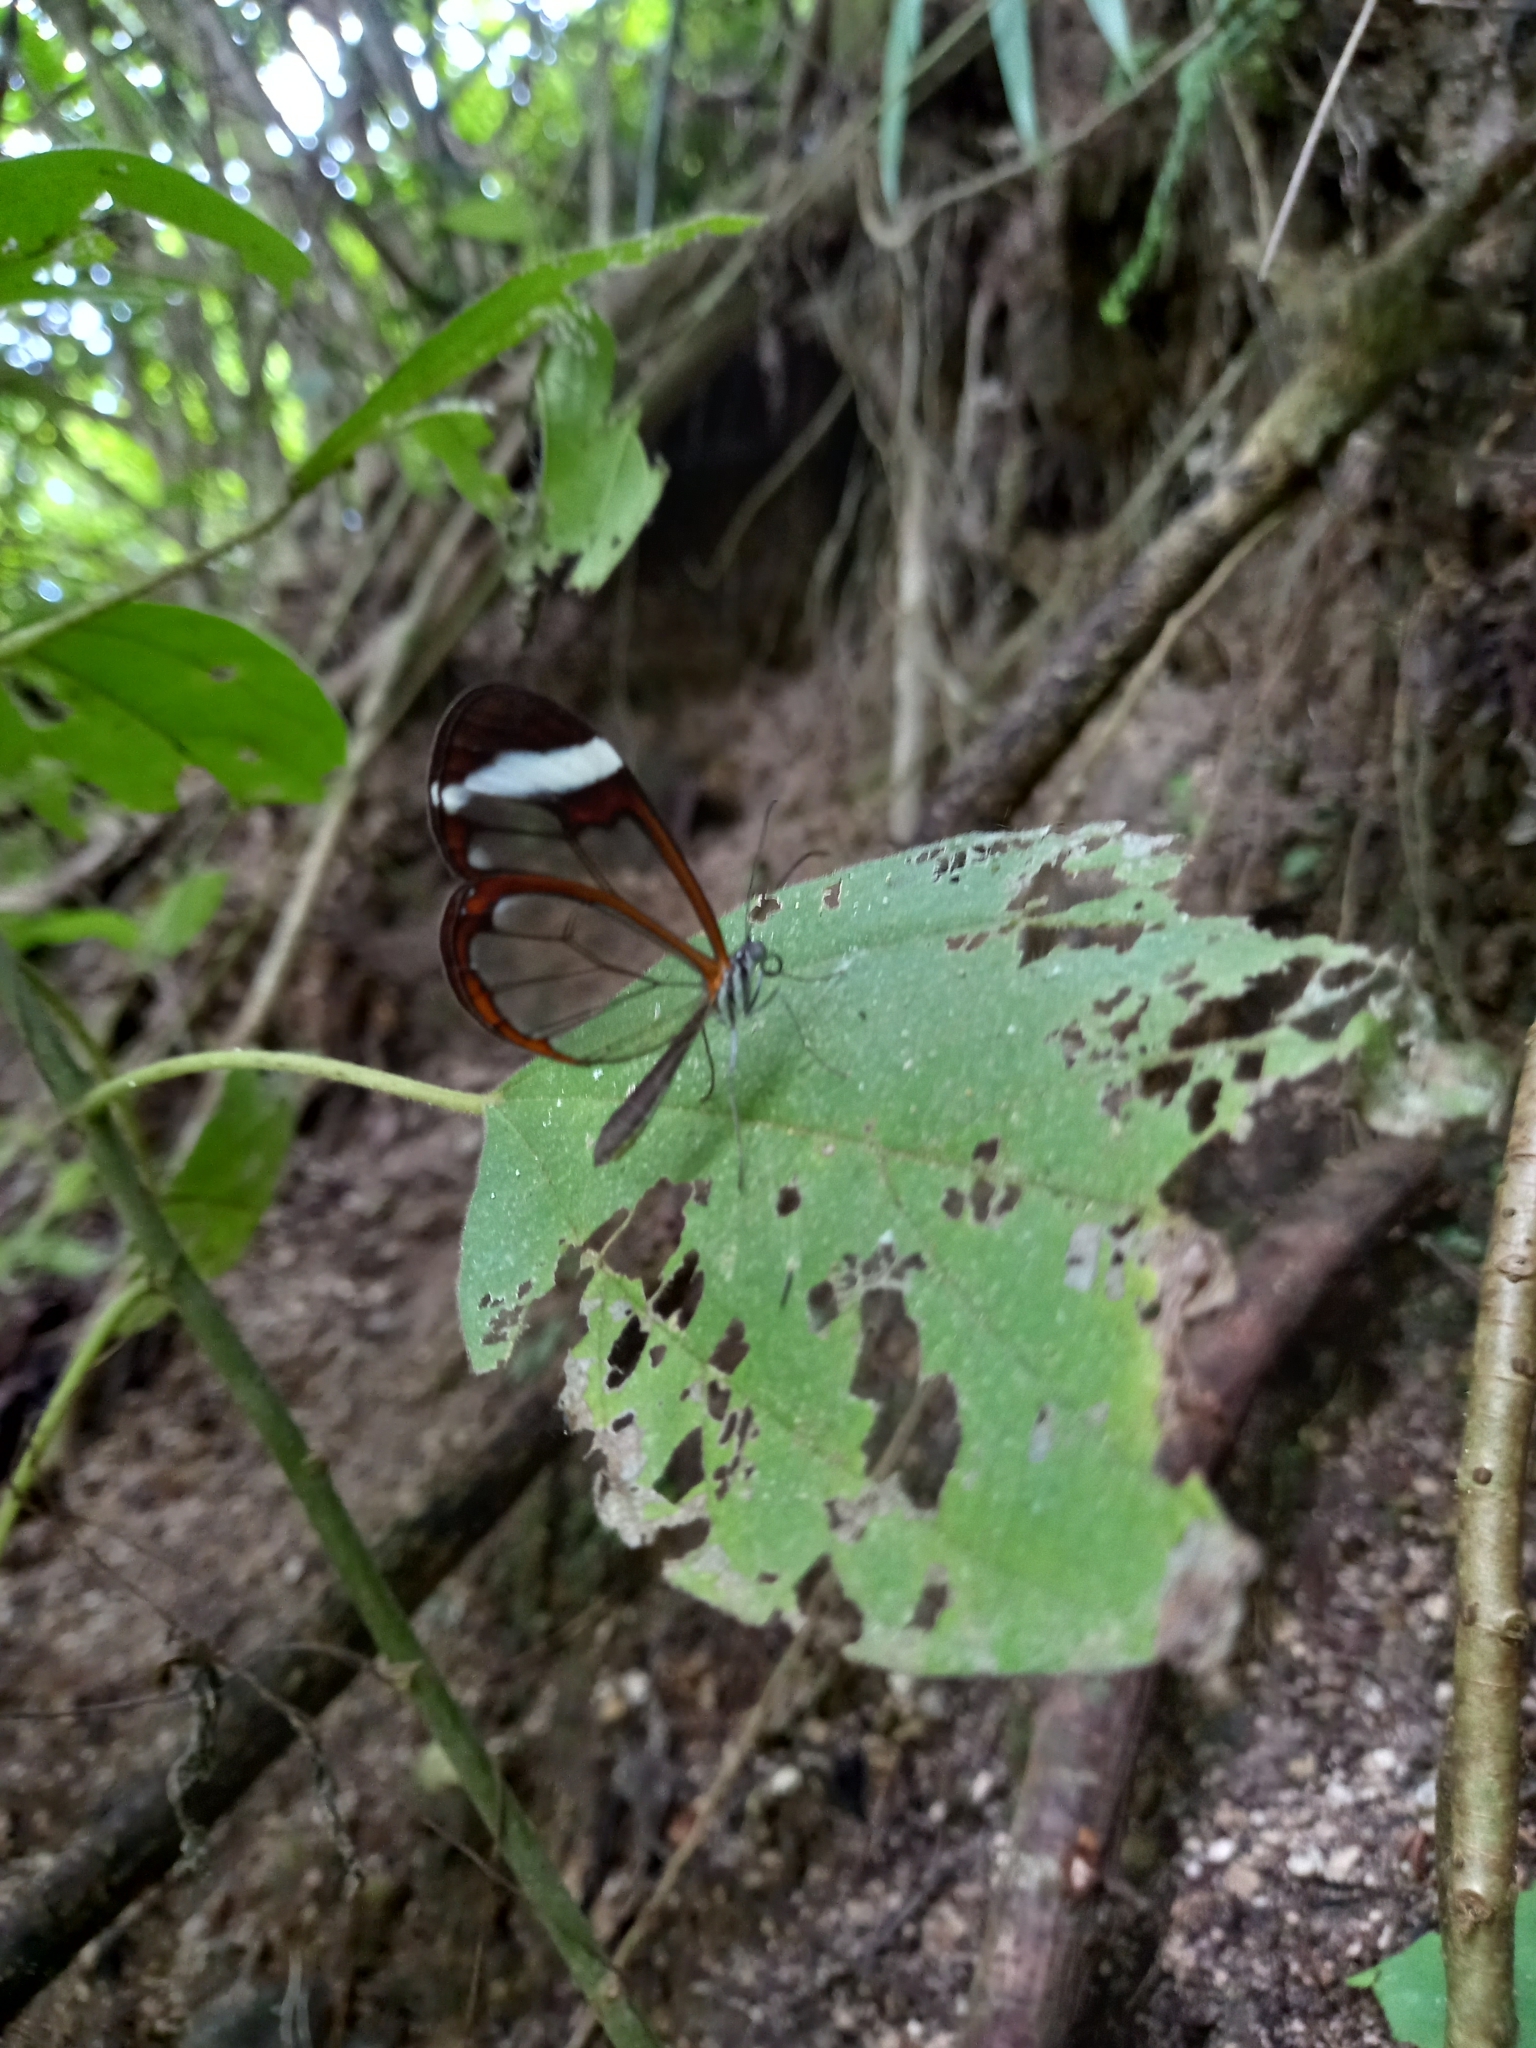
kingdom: Animalia
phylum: Arthropoda
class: Insecta
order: Lepidoptera
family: Nymphalidae
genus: Greta
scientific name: Greta morgane
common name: Thick-tipped greta
